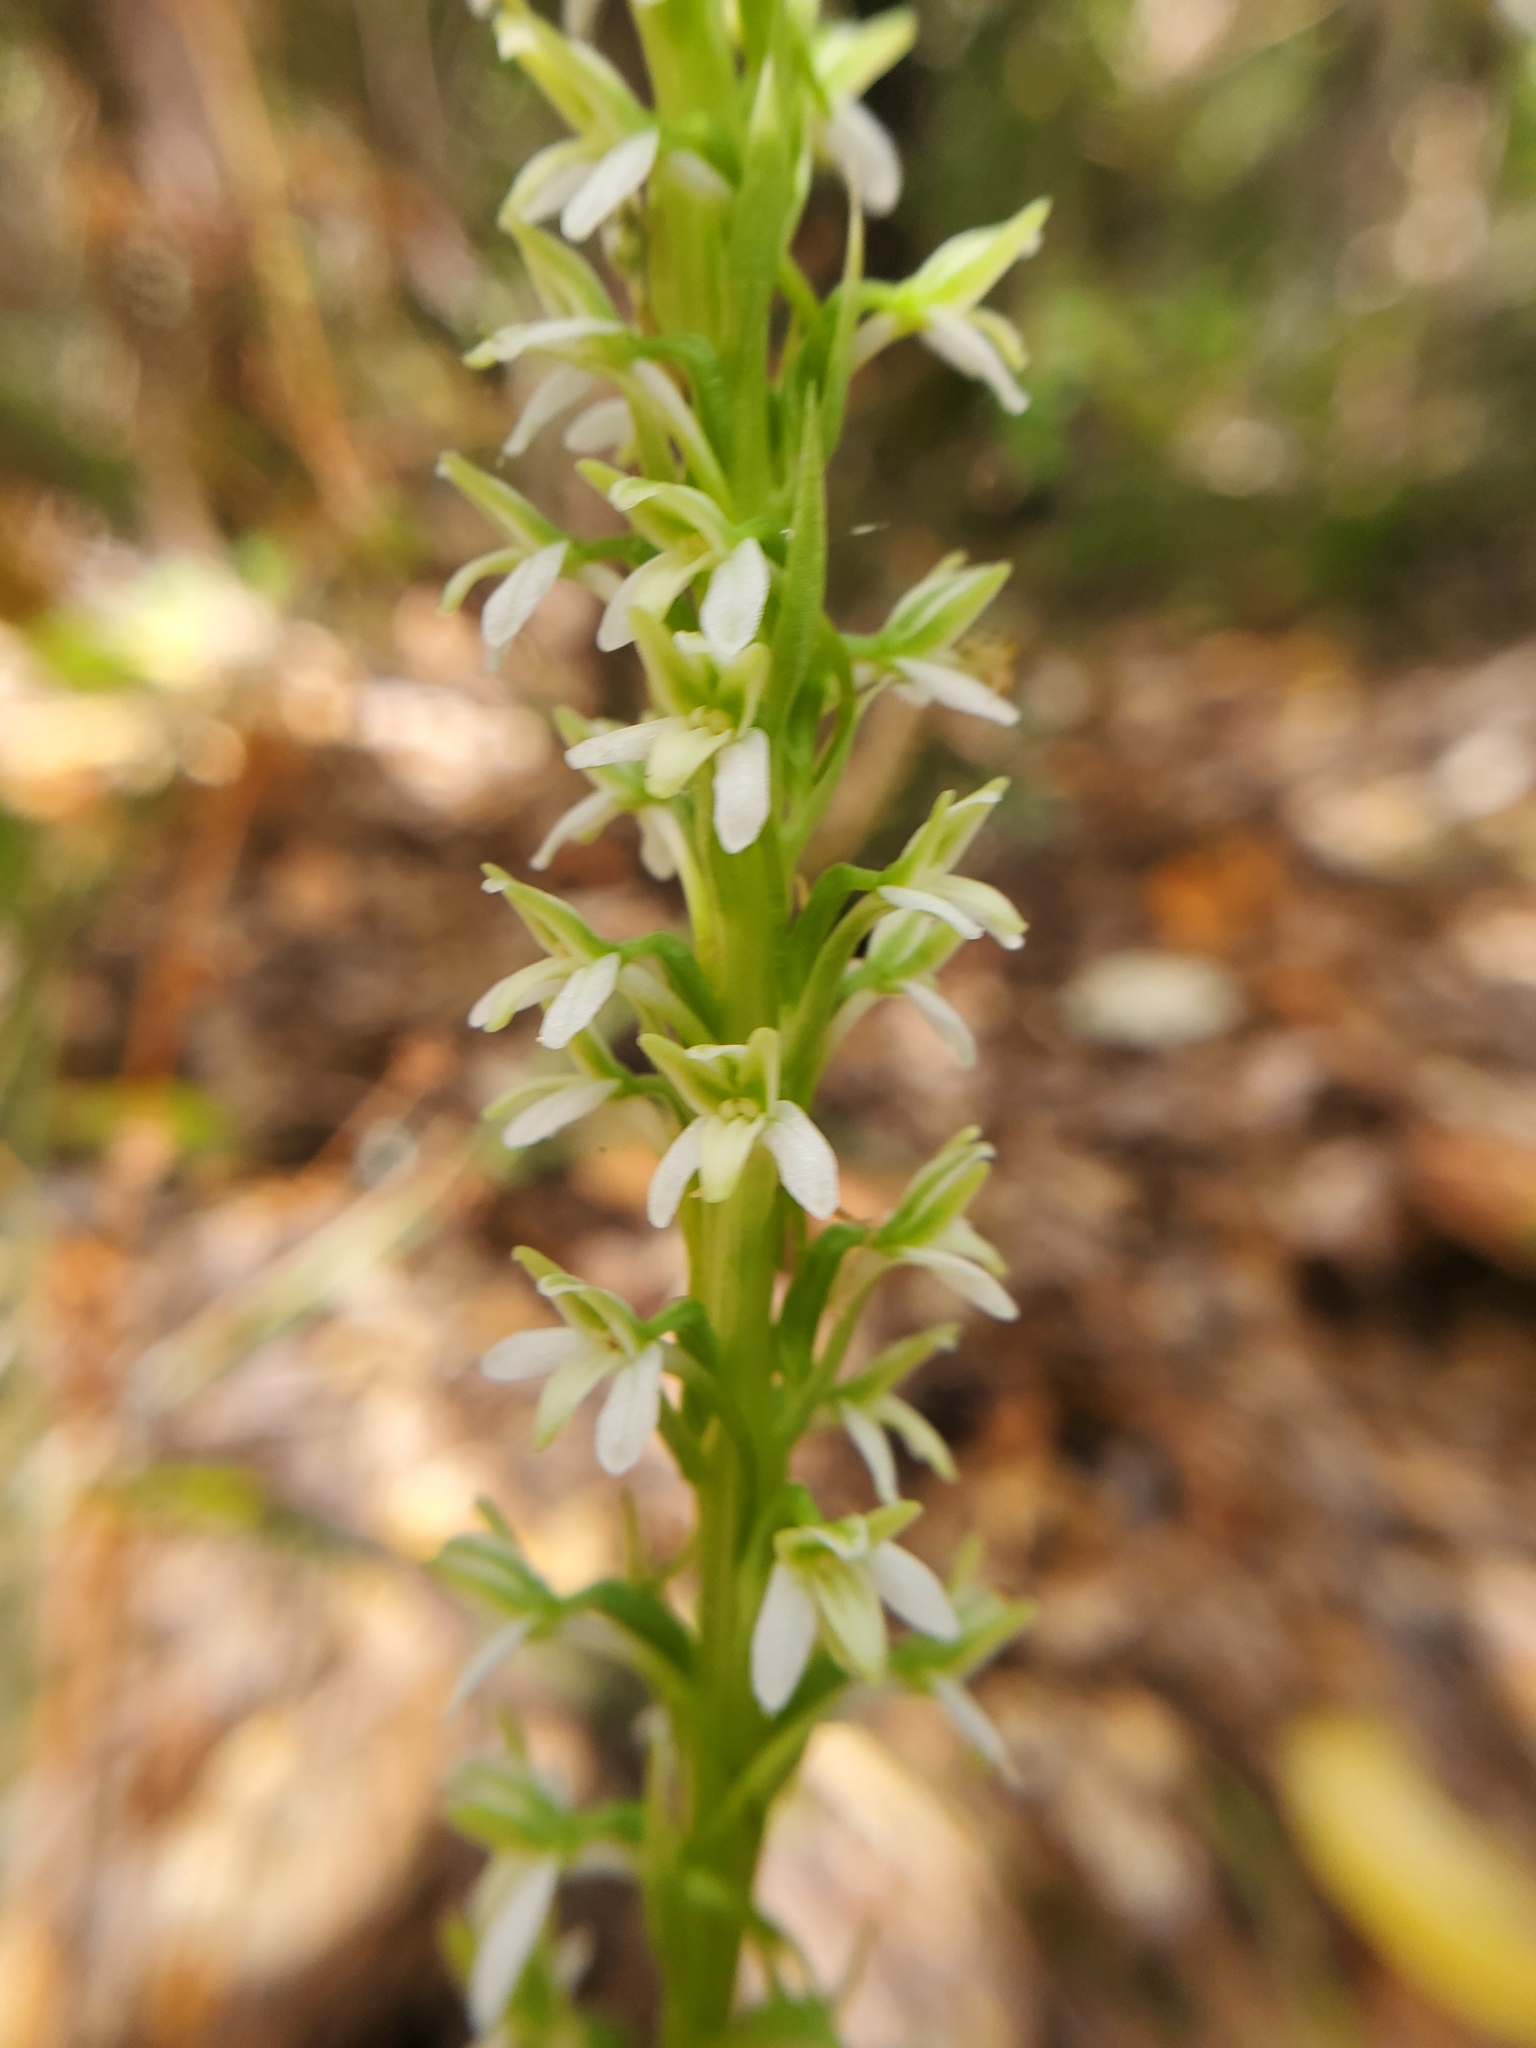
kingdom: Plantae
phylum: Tracheophyta
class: Liliopsida
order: Asparagales
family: Orchidaceae
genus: Platanthera
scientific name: Platanthera elegans
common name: Coast piperia
